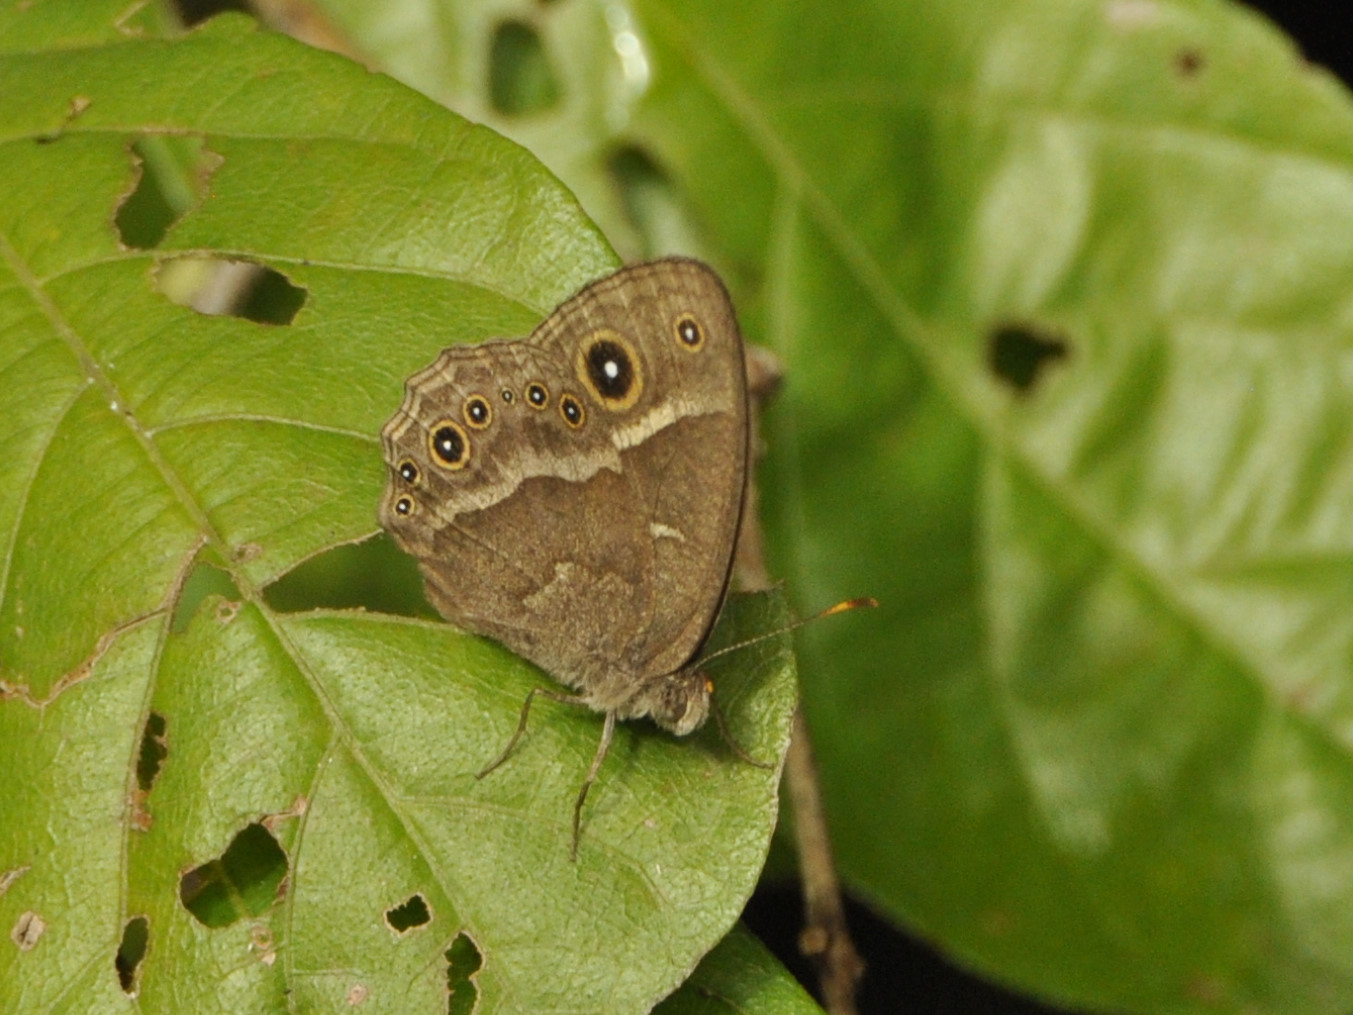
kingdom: Animalia
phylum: Arthropoda
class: Insecta
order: Lepidoptera
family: Nymphalidae
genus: Mycalesis
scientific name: Mycalesis anynana
